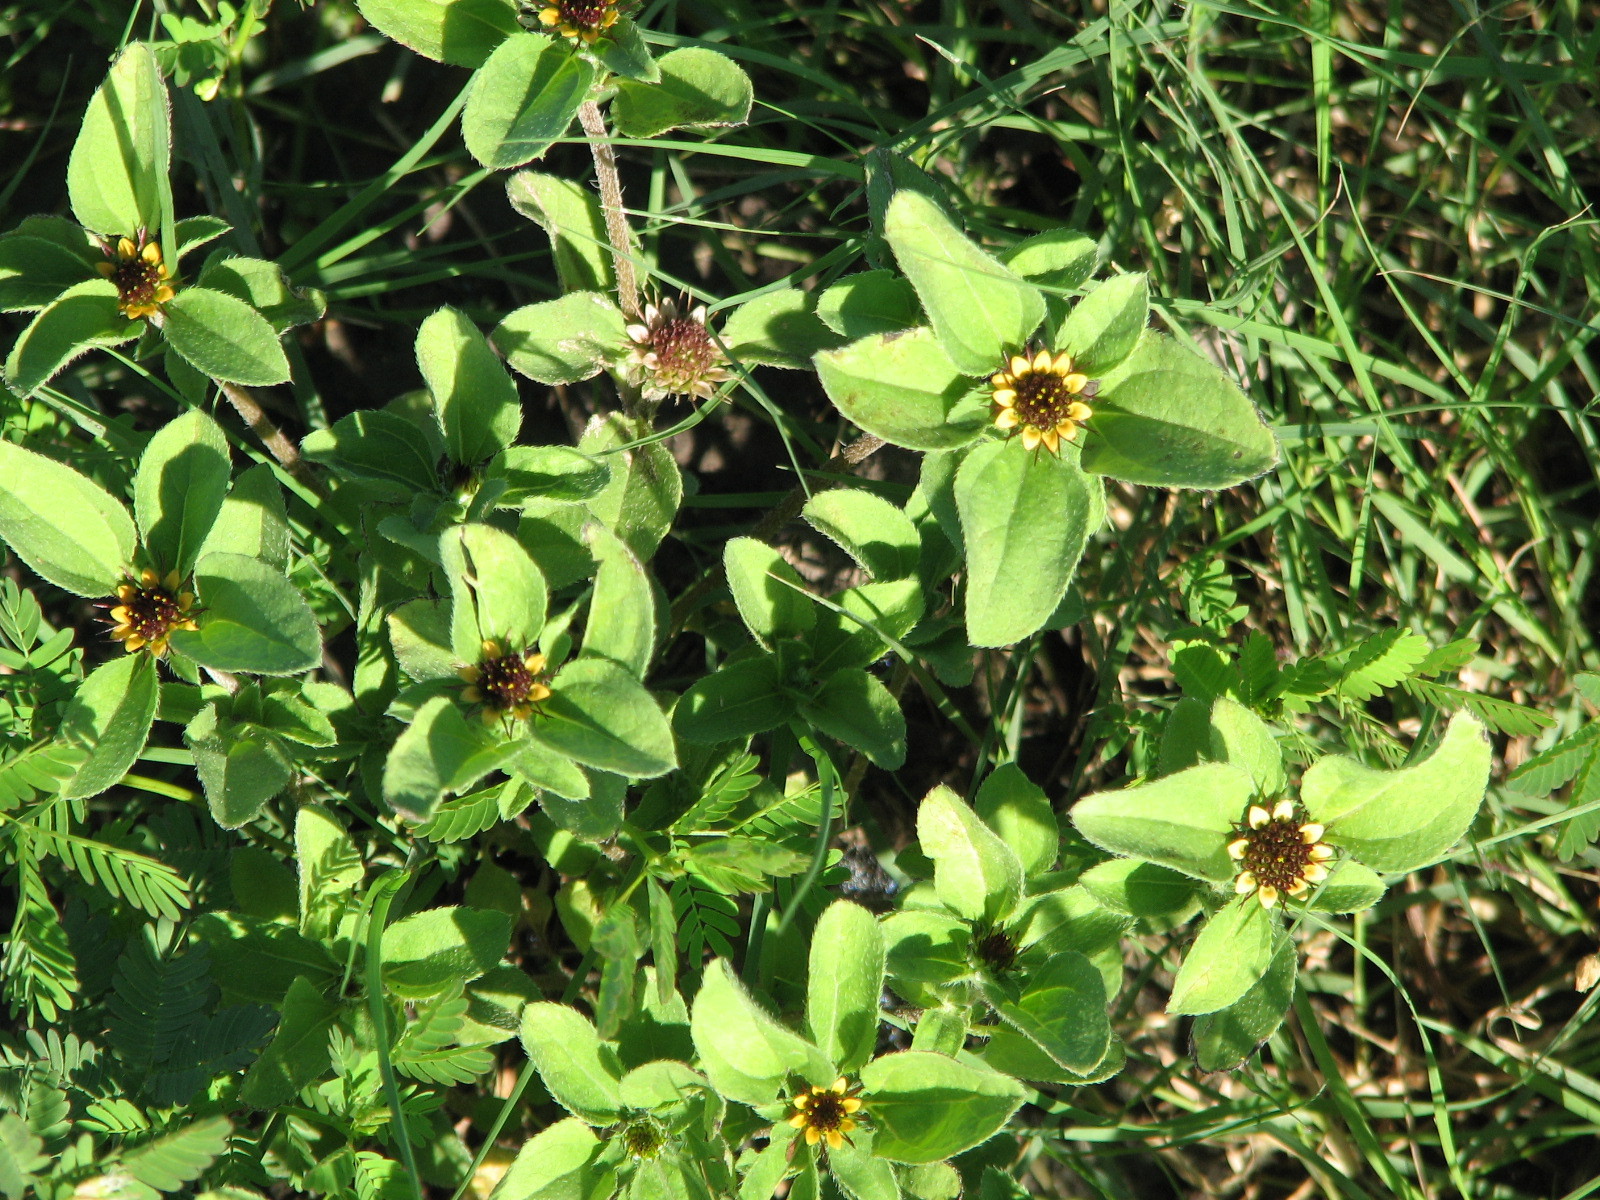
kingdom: Plantae
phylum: Tracheophyta
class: Magnoliopsida
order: Asterales
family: Asteraceae
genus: Sanvitalia
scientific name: Sanvitalia ocymoides
